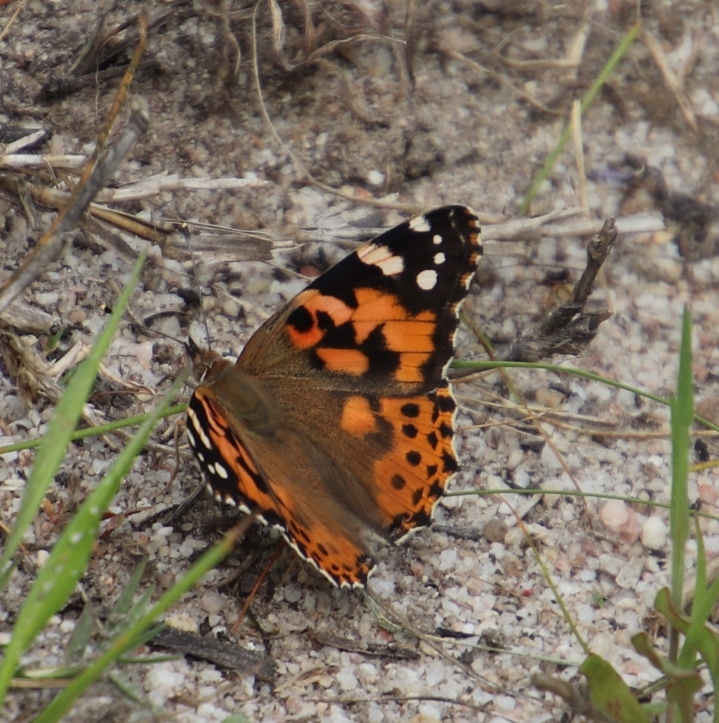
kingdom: Animalia
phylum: Arthropoda
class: Insecta
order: Lepidoptera
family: Nymphalidae
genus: Vanessa
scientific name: Vanessa cardui
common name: Painted lady
